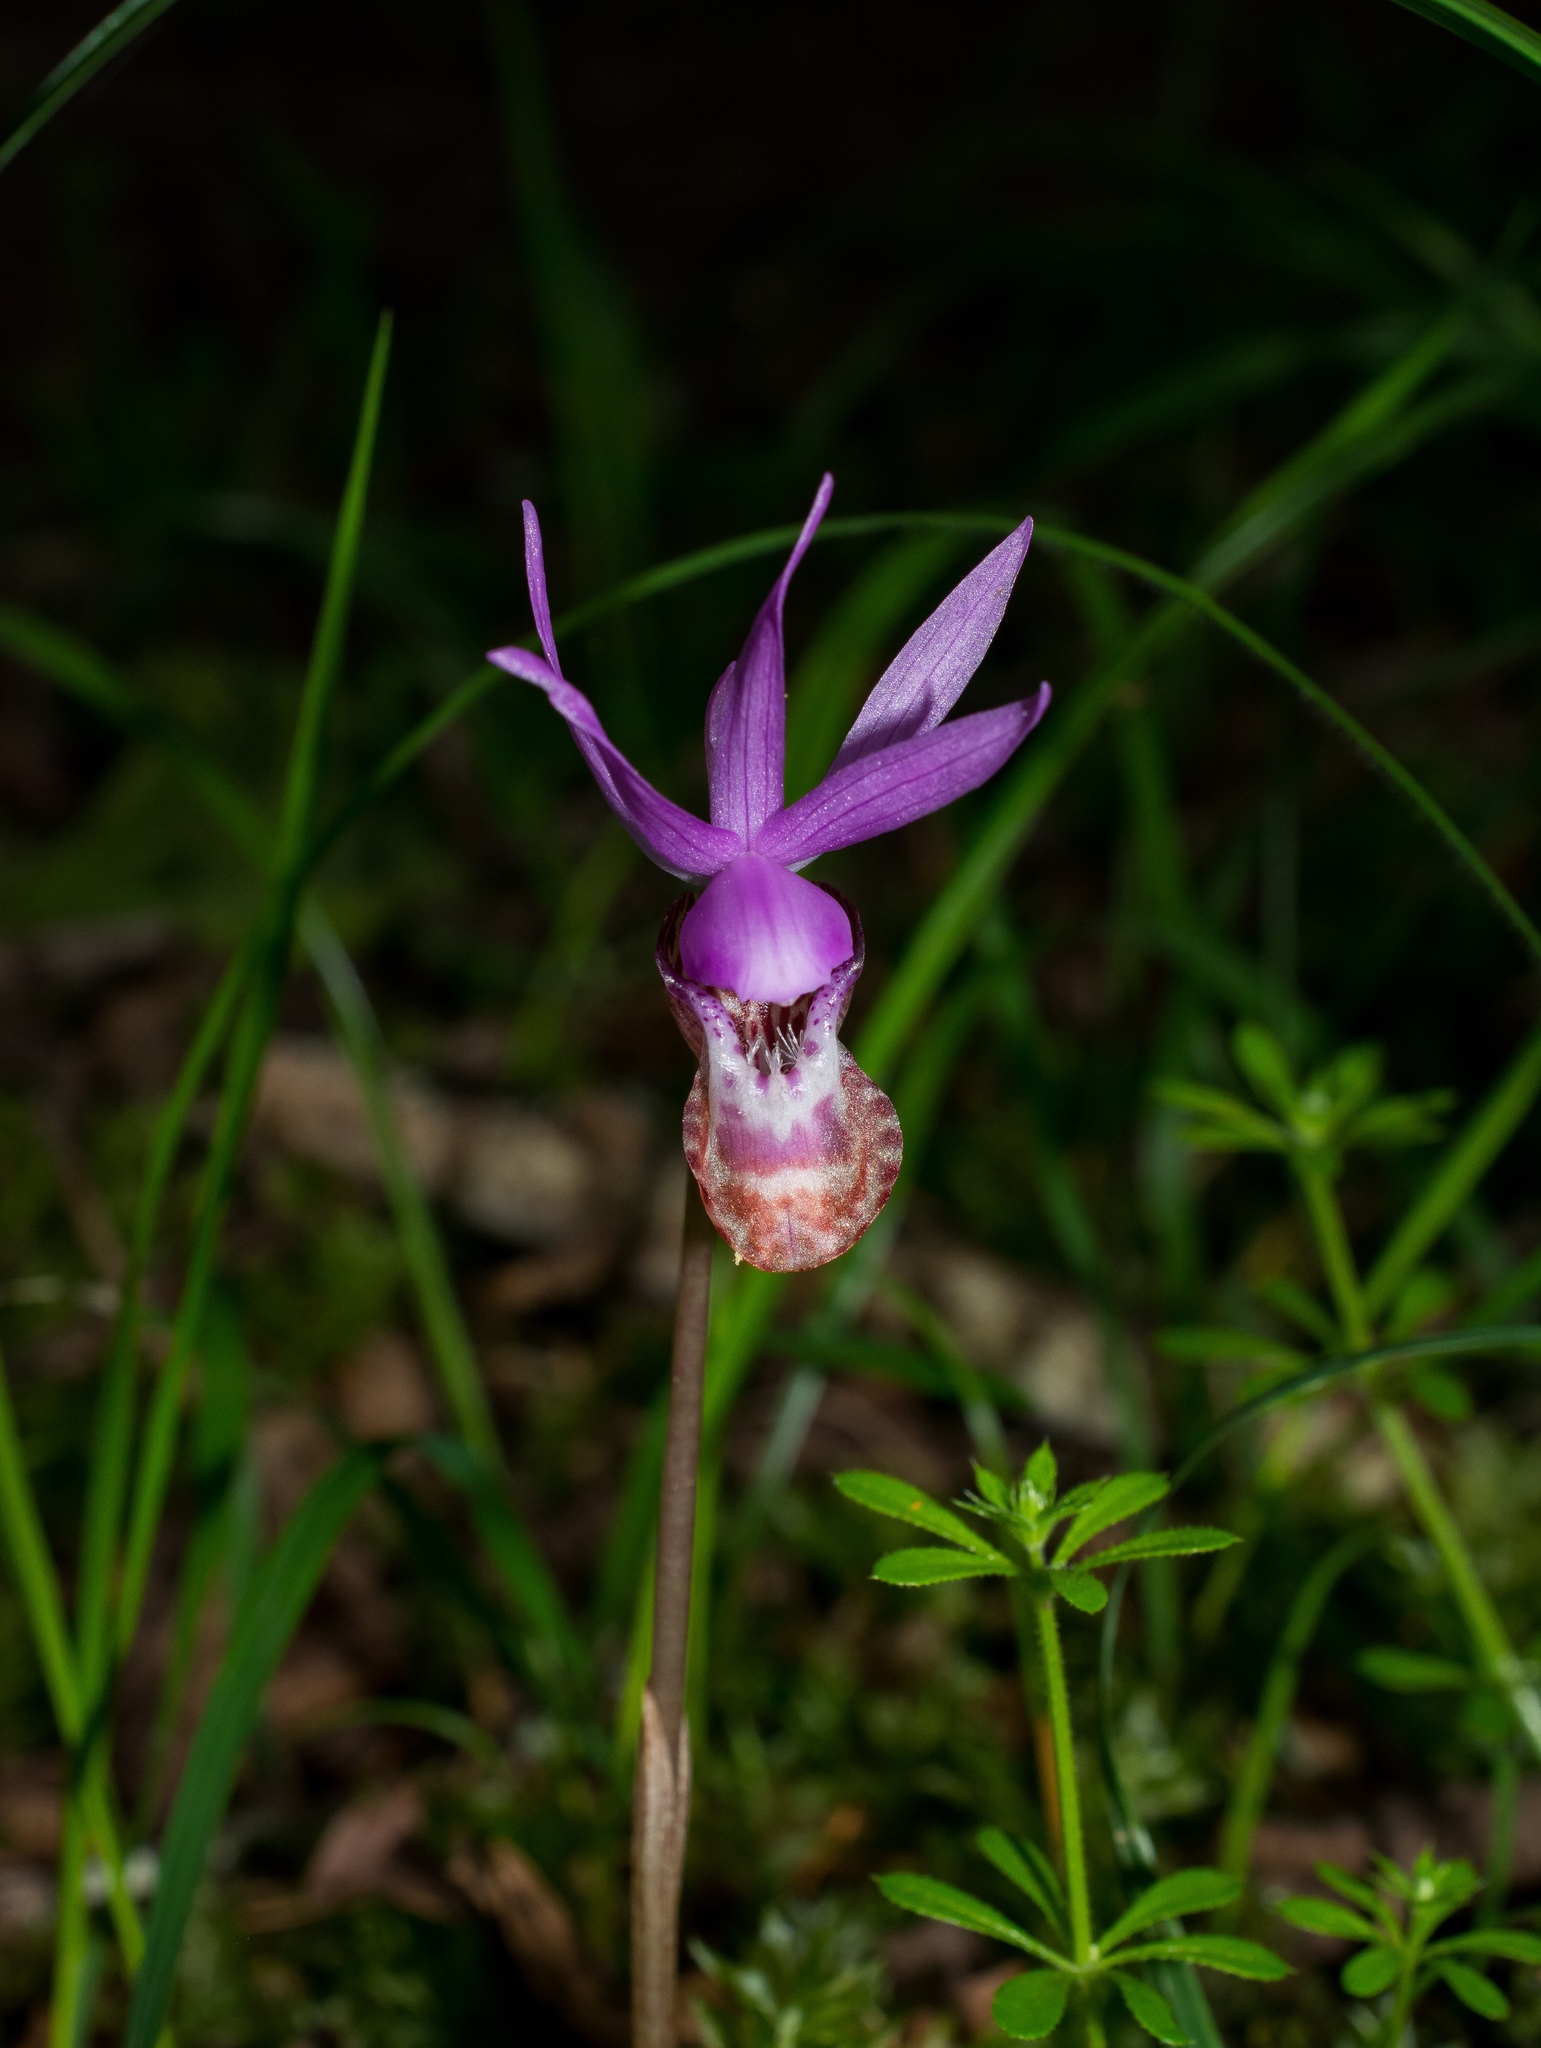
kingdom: Plantae
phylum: Tracheophyta
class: Liliopsida
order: Asparagales
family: Orchidaceae
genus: Calypso
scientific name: Calypso bulbosa
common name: Calypso
